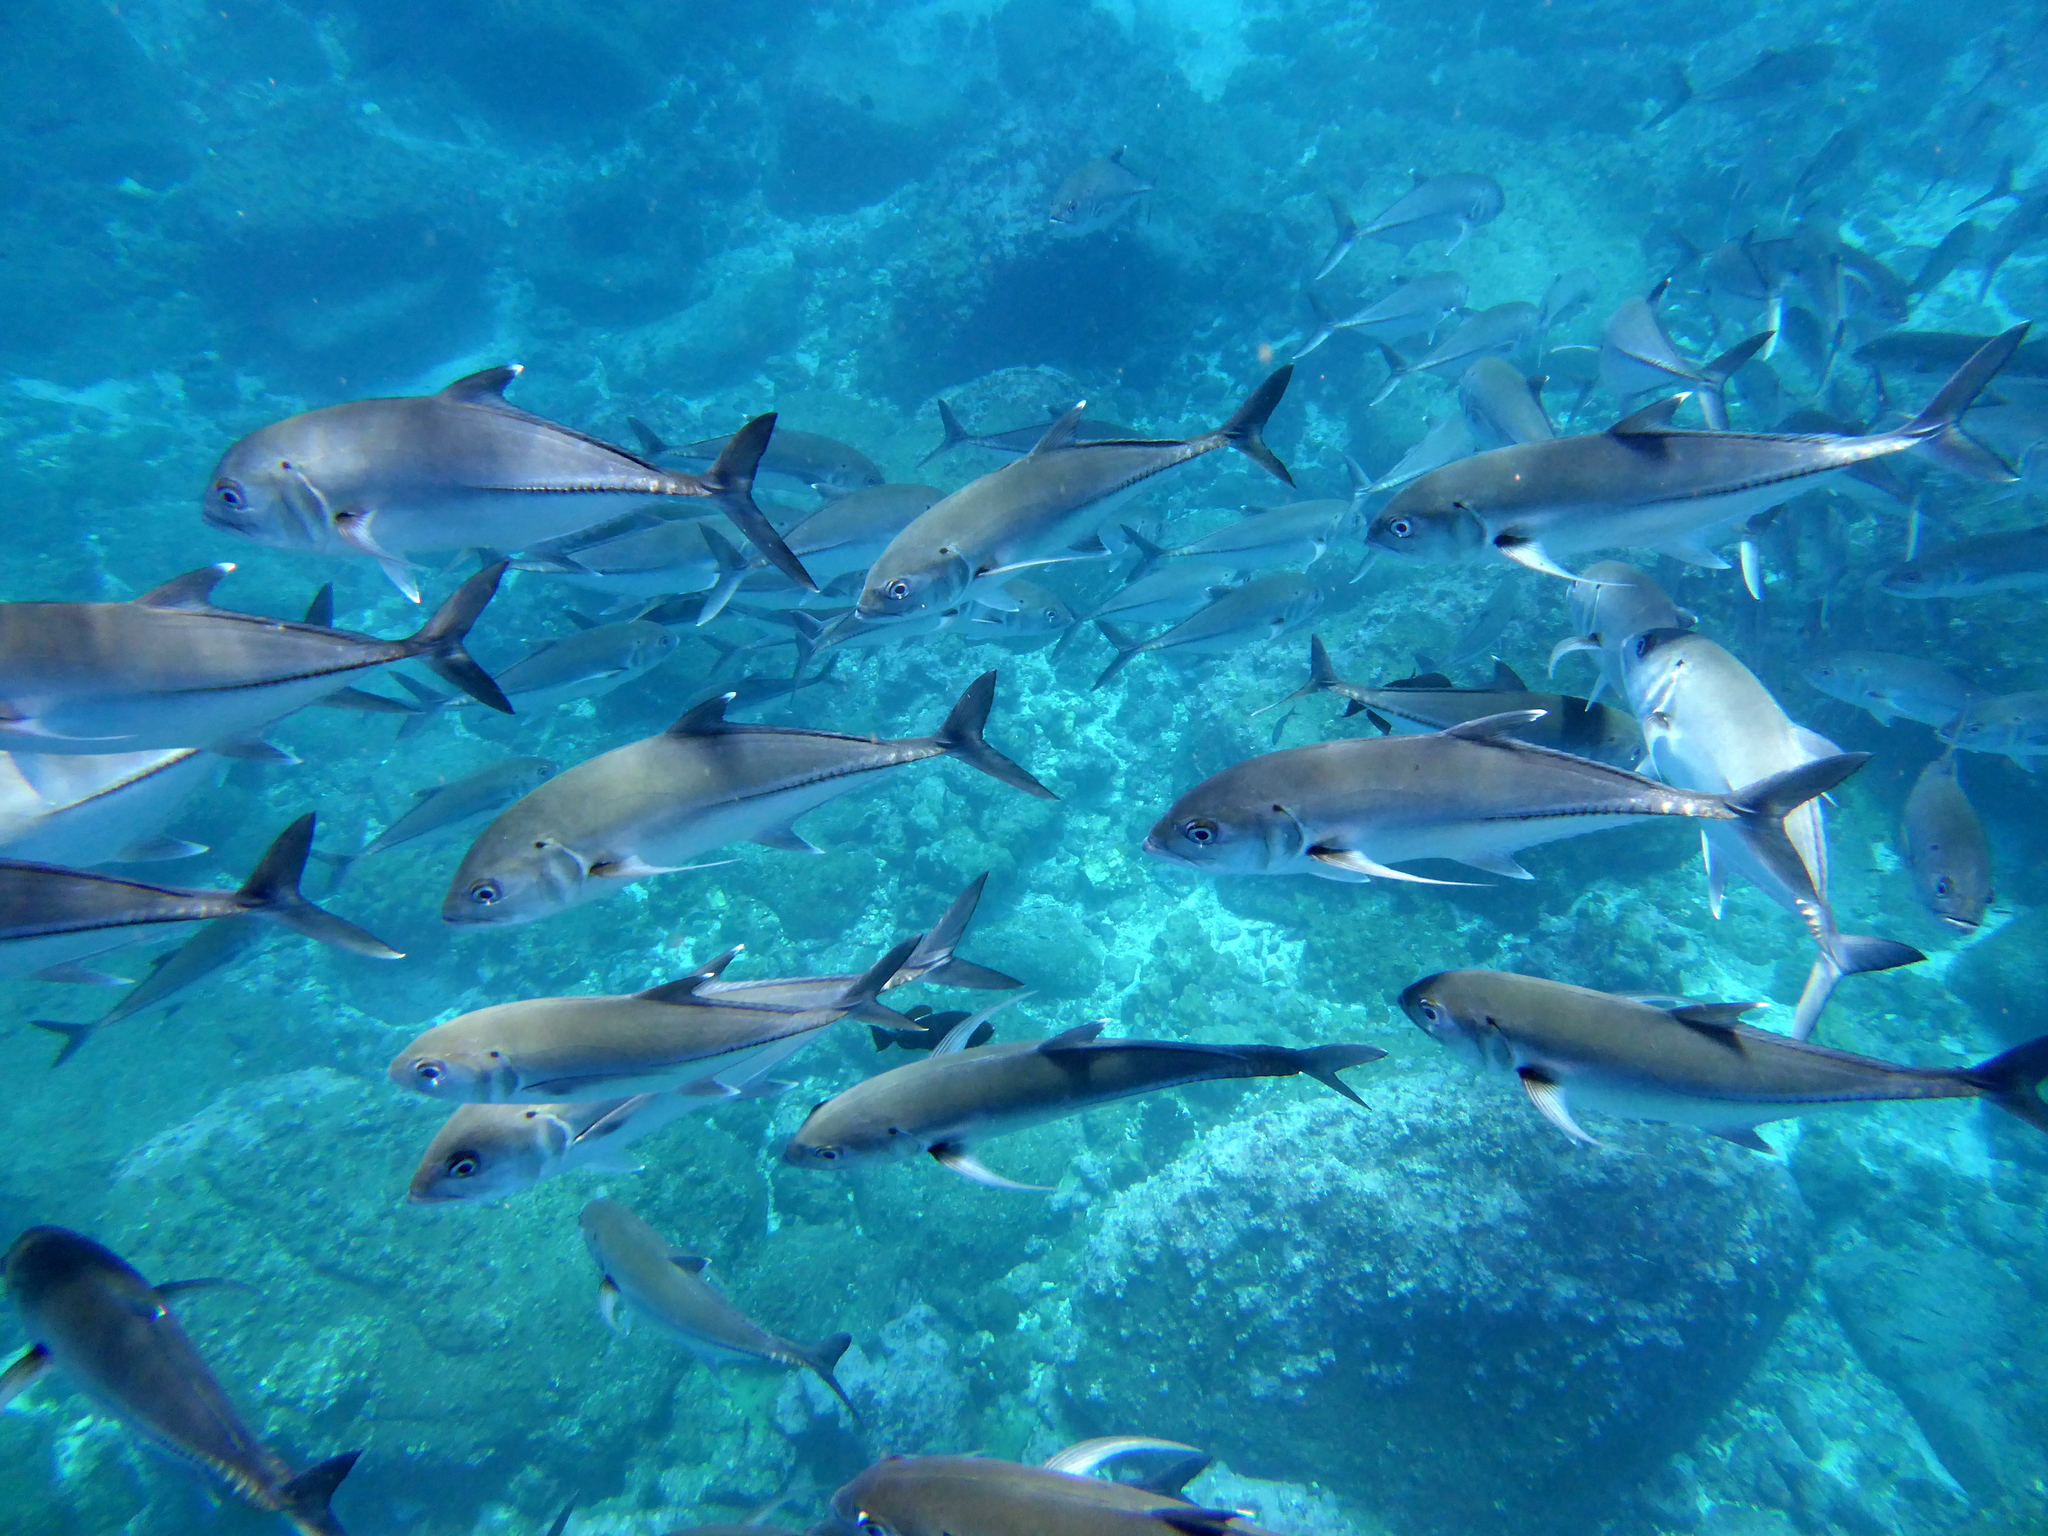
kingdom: Animalia
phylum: Chordata
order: Perciformes
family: Carangidae
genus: Caranx
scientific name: Caranx sexfasciatus
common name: Bigeye trevally
